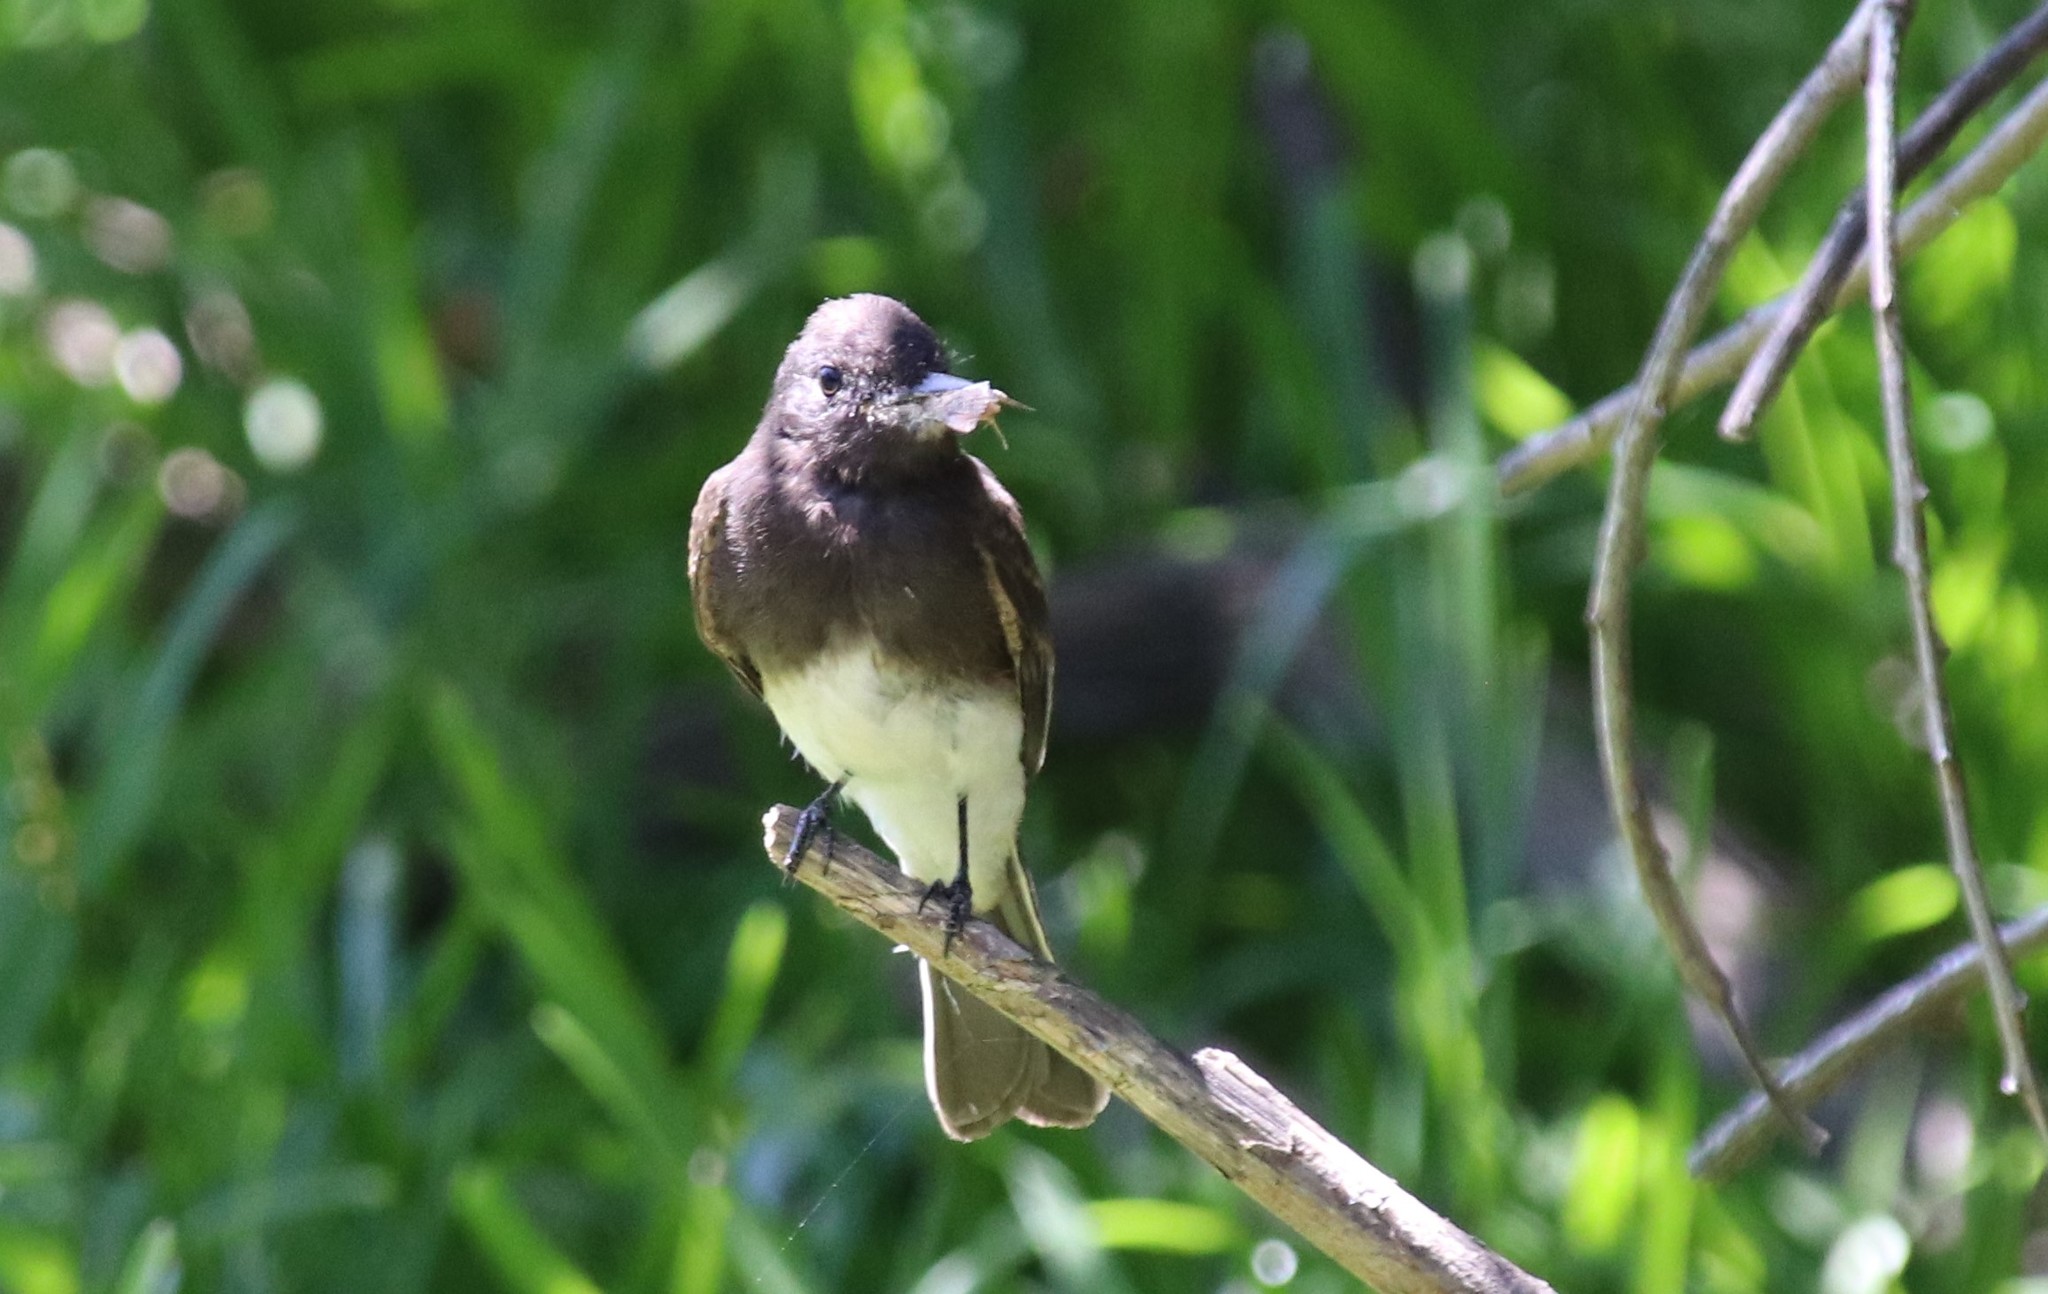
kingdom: Animalia
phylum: Chordata
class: Aves
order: Passeriformes
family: Tyrannidae
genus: Sayornis
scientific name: Sayornis nigricans
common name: Black phoebe
